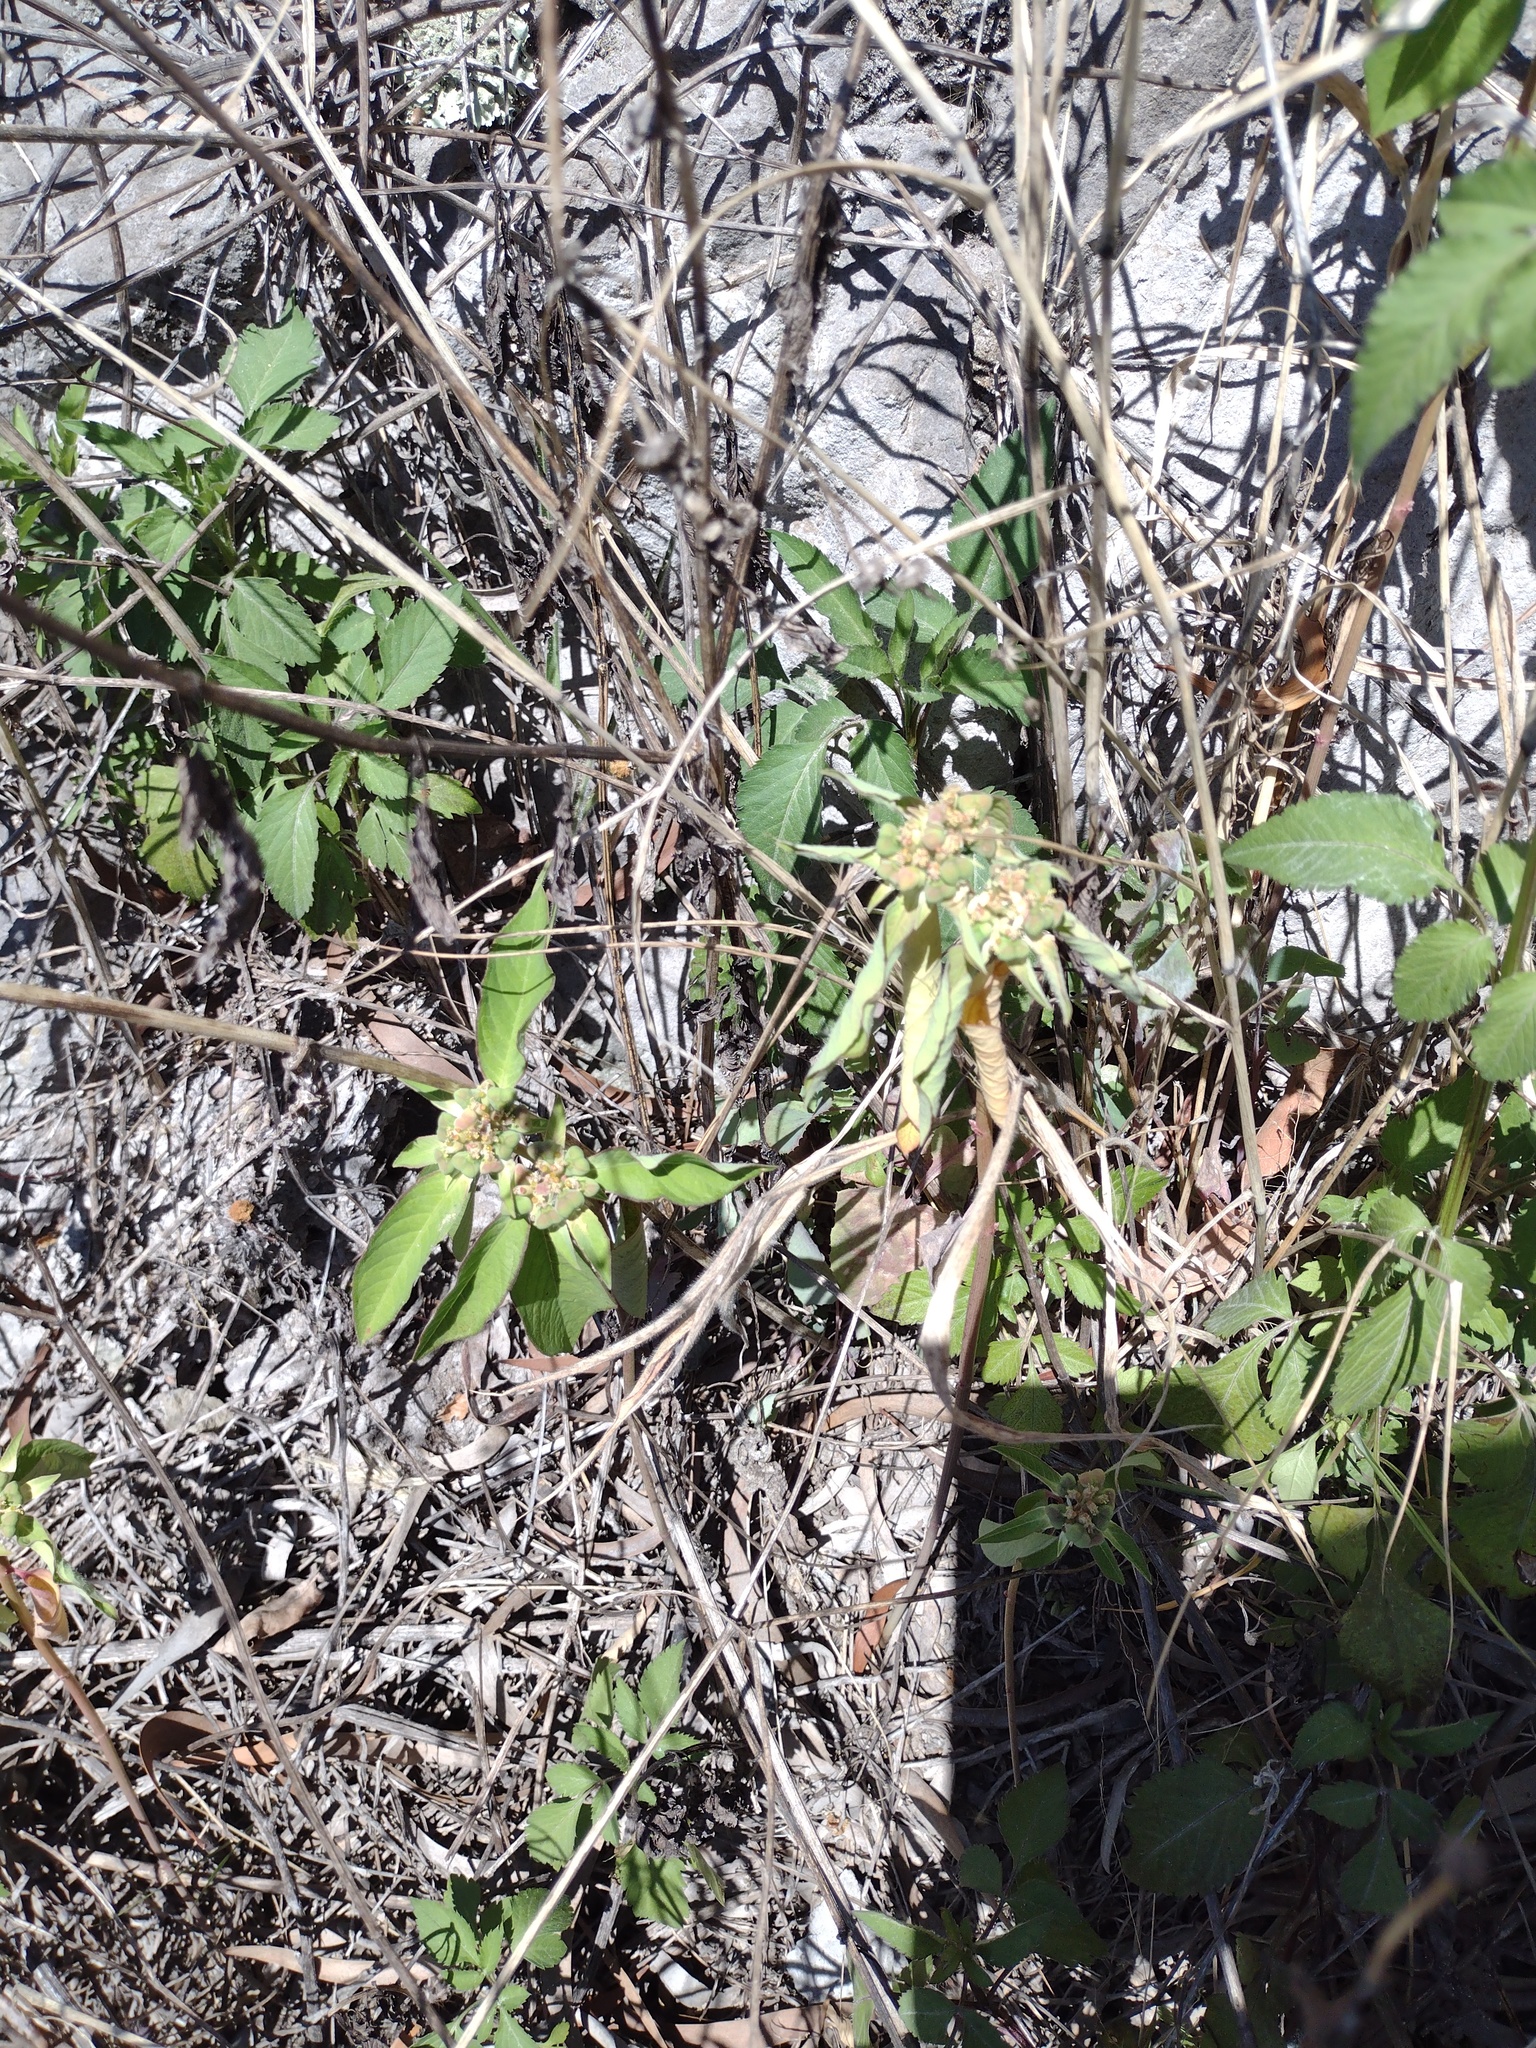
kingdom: Plantae
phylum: Tracheophyta
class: Magnoliopsida
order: Malpighiales
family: Euphorbiaceae
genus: Euphorbia
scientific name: Euphorbia heterophylla
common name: Mexican fireplant
